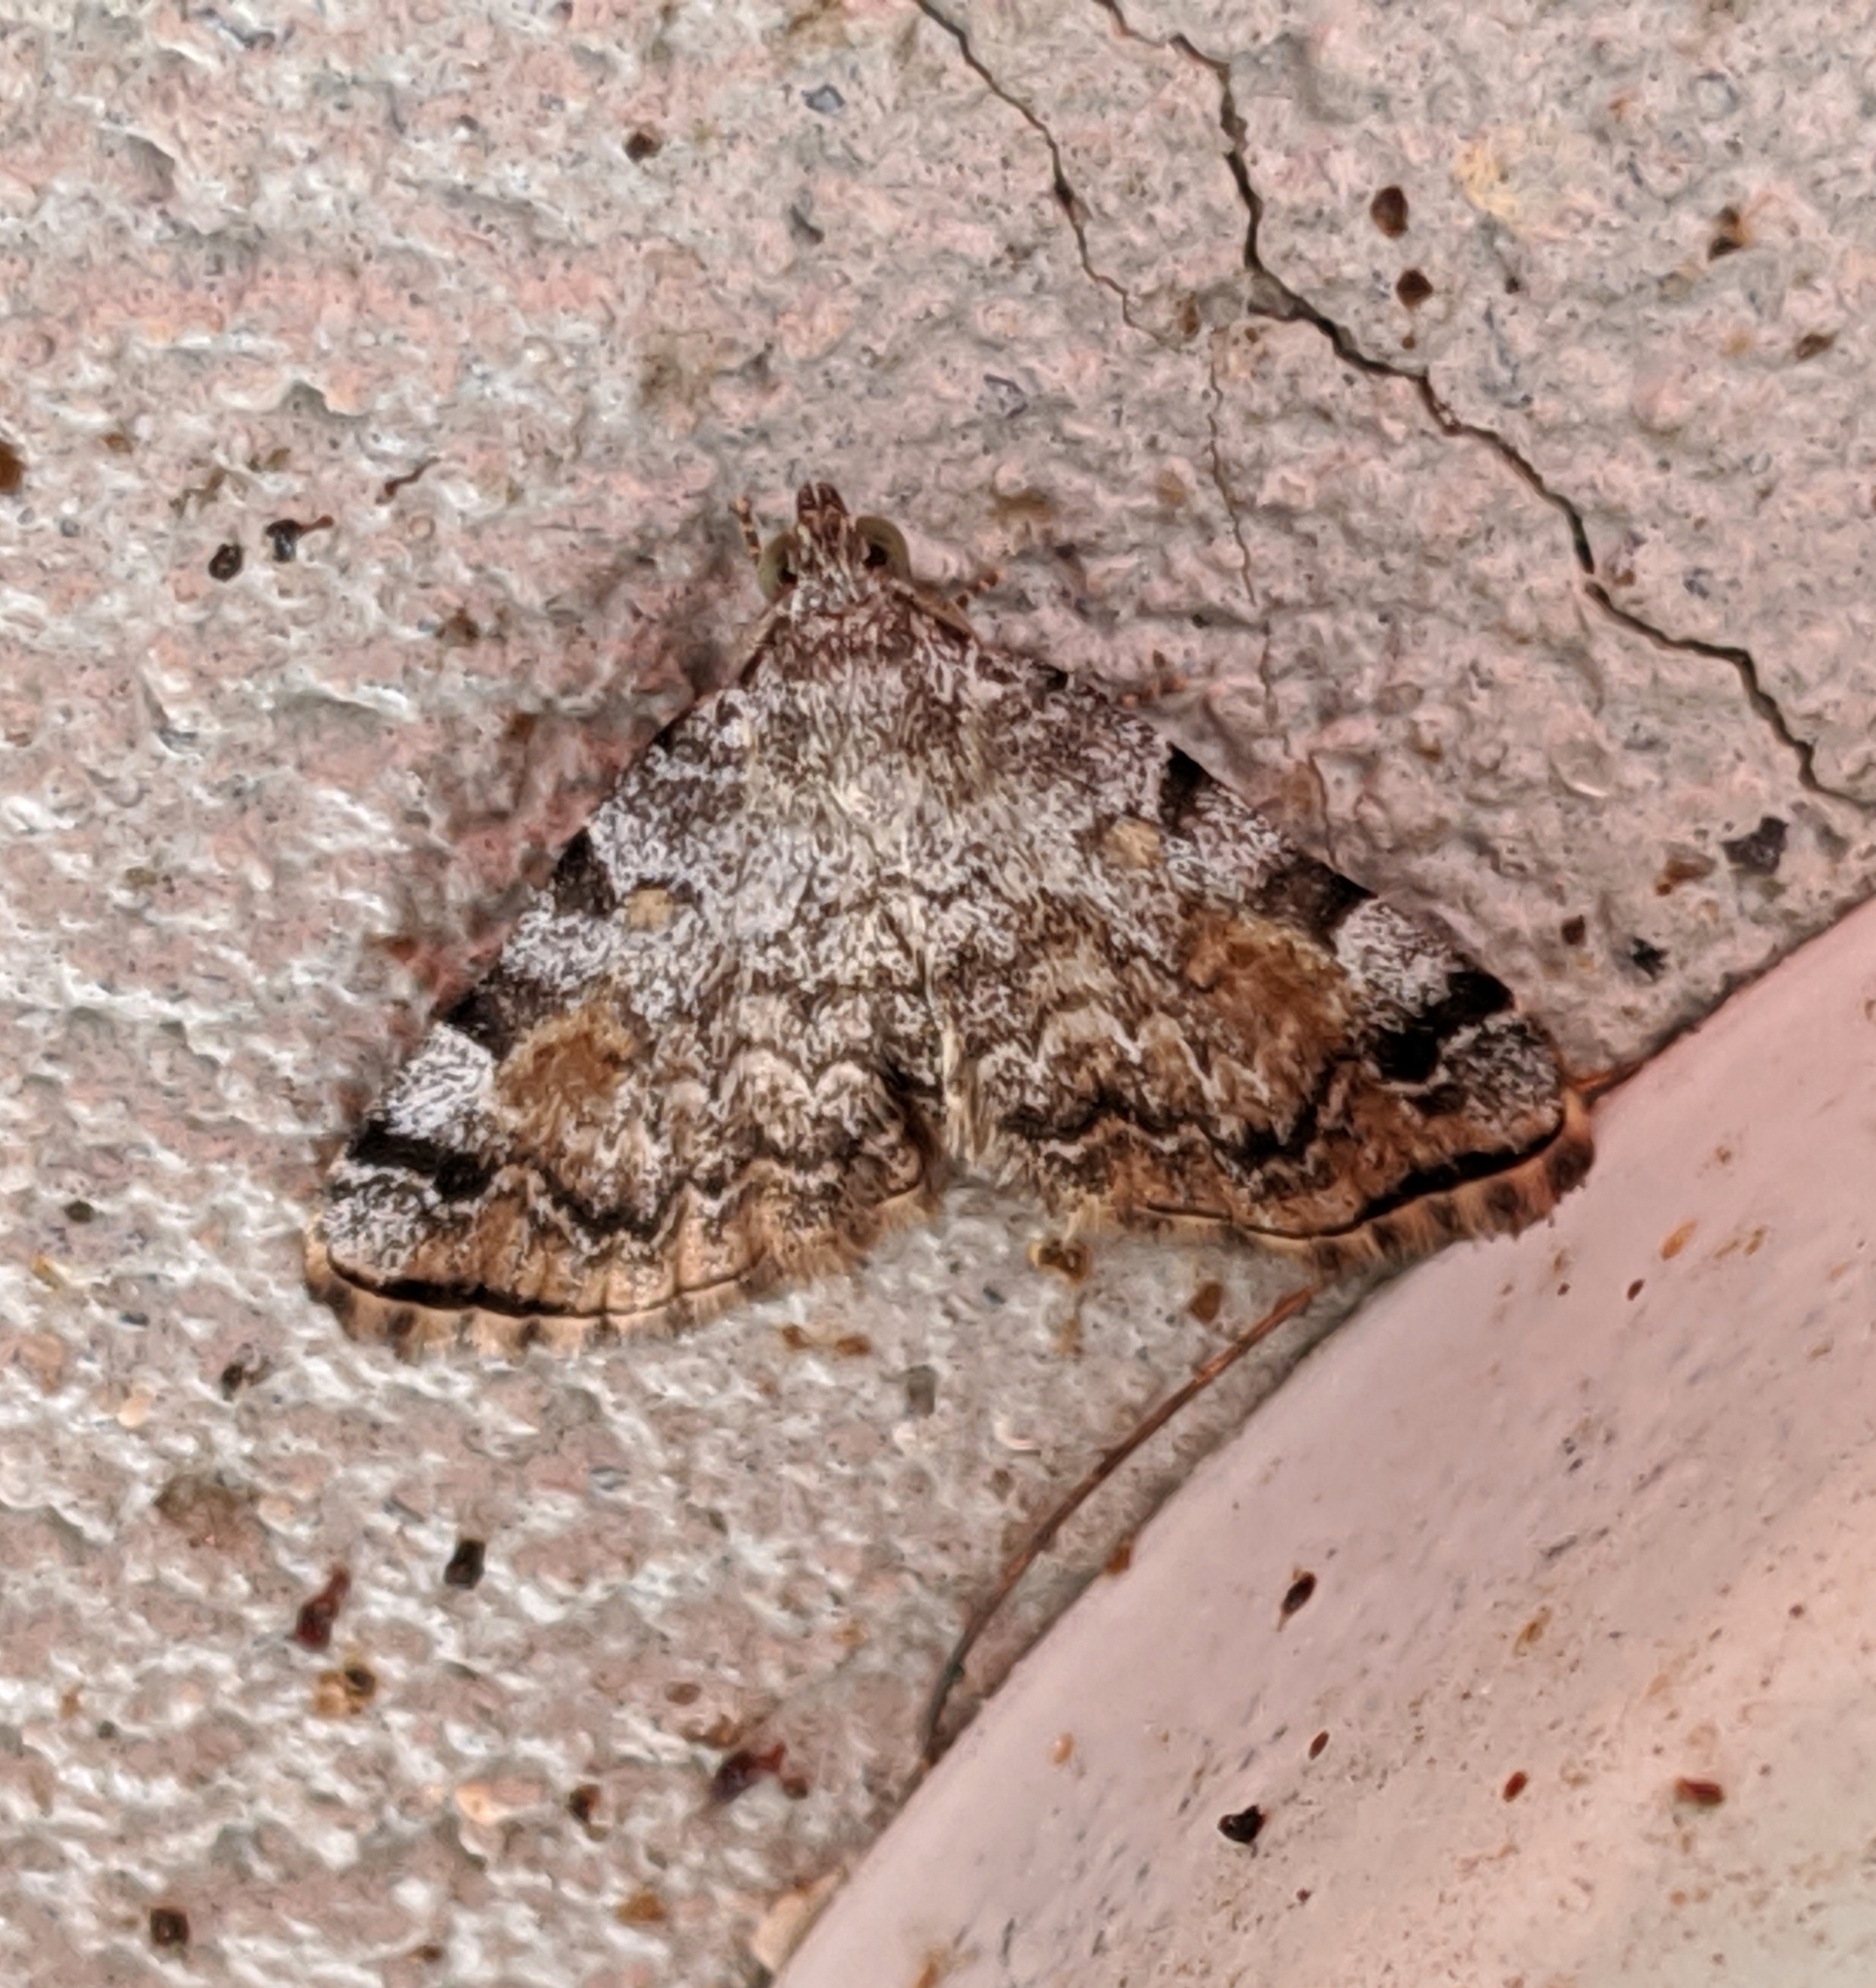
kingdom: Animalia
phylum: Arthropoda
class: Insecta
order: Lepidoptera
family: Erebidae
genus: Idia
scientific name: Idia americalis
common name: American idia moth
